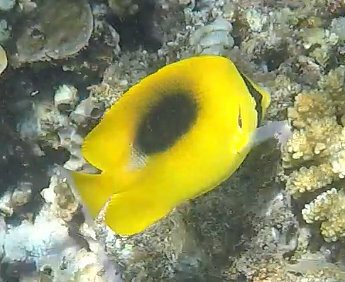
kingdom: Animalia
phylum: Chordata
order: Perciformes
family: Chaetodontidae
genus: Chaetodon
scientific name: Chaetodon speculum
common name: Mirror butterflyfish
